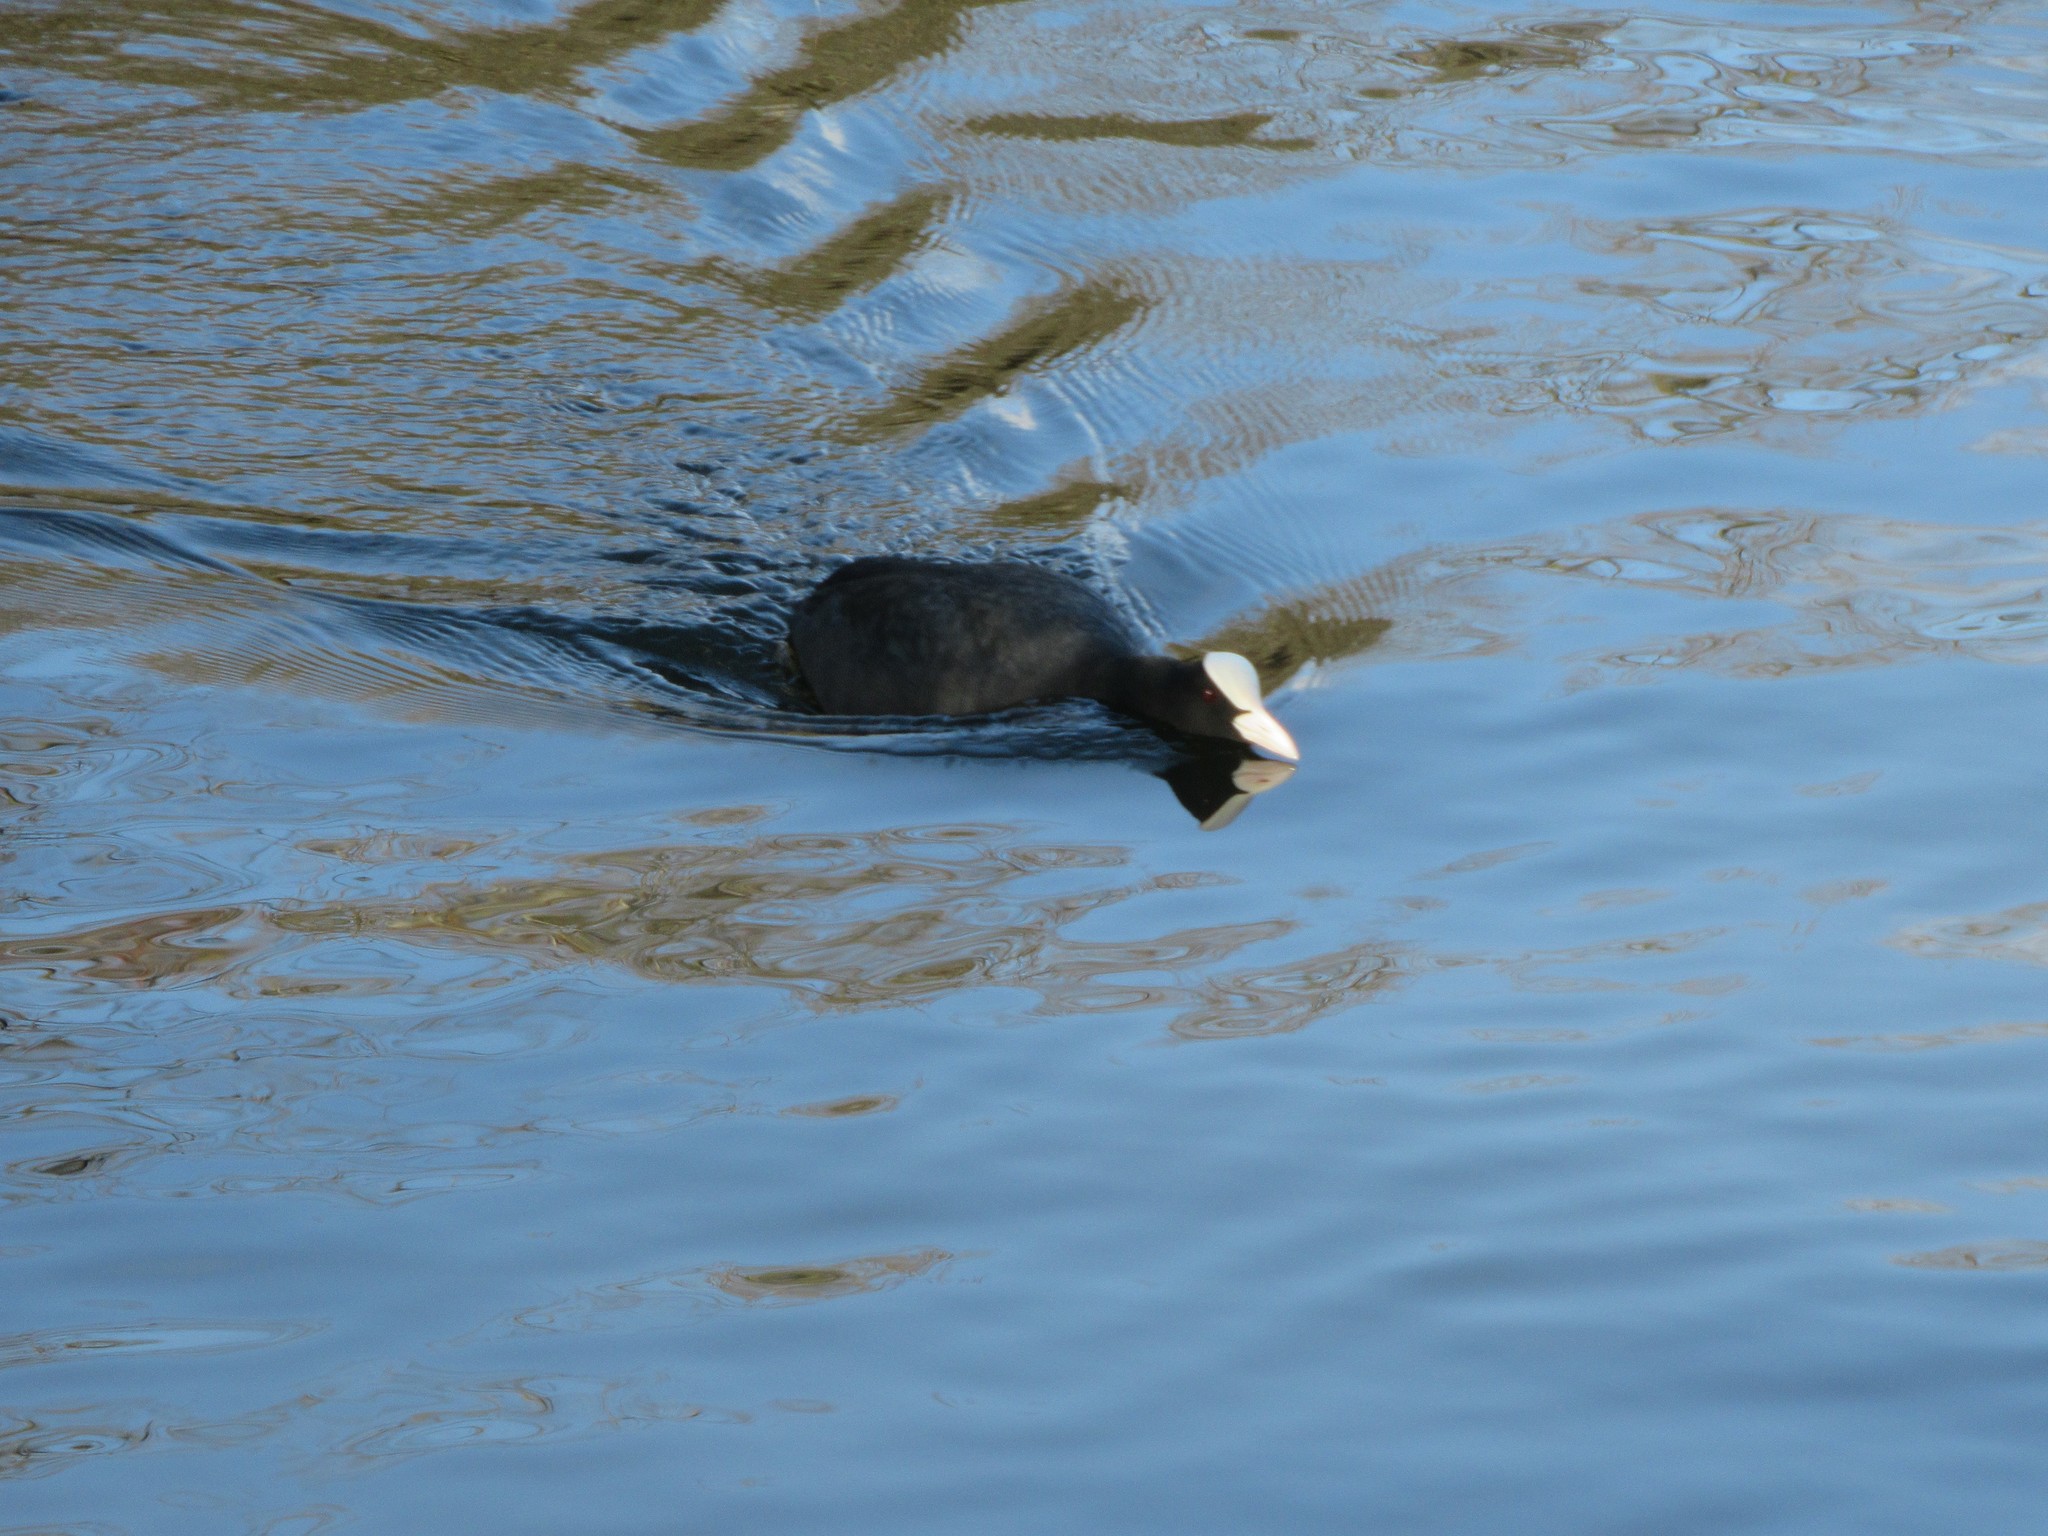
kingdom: Animalia
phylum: Chordata
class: Aves
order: Gruiformes
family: Rallidae
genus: Fulica
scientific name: Fulica atra
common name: Eurasian coot
